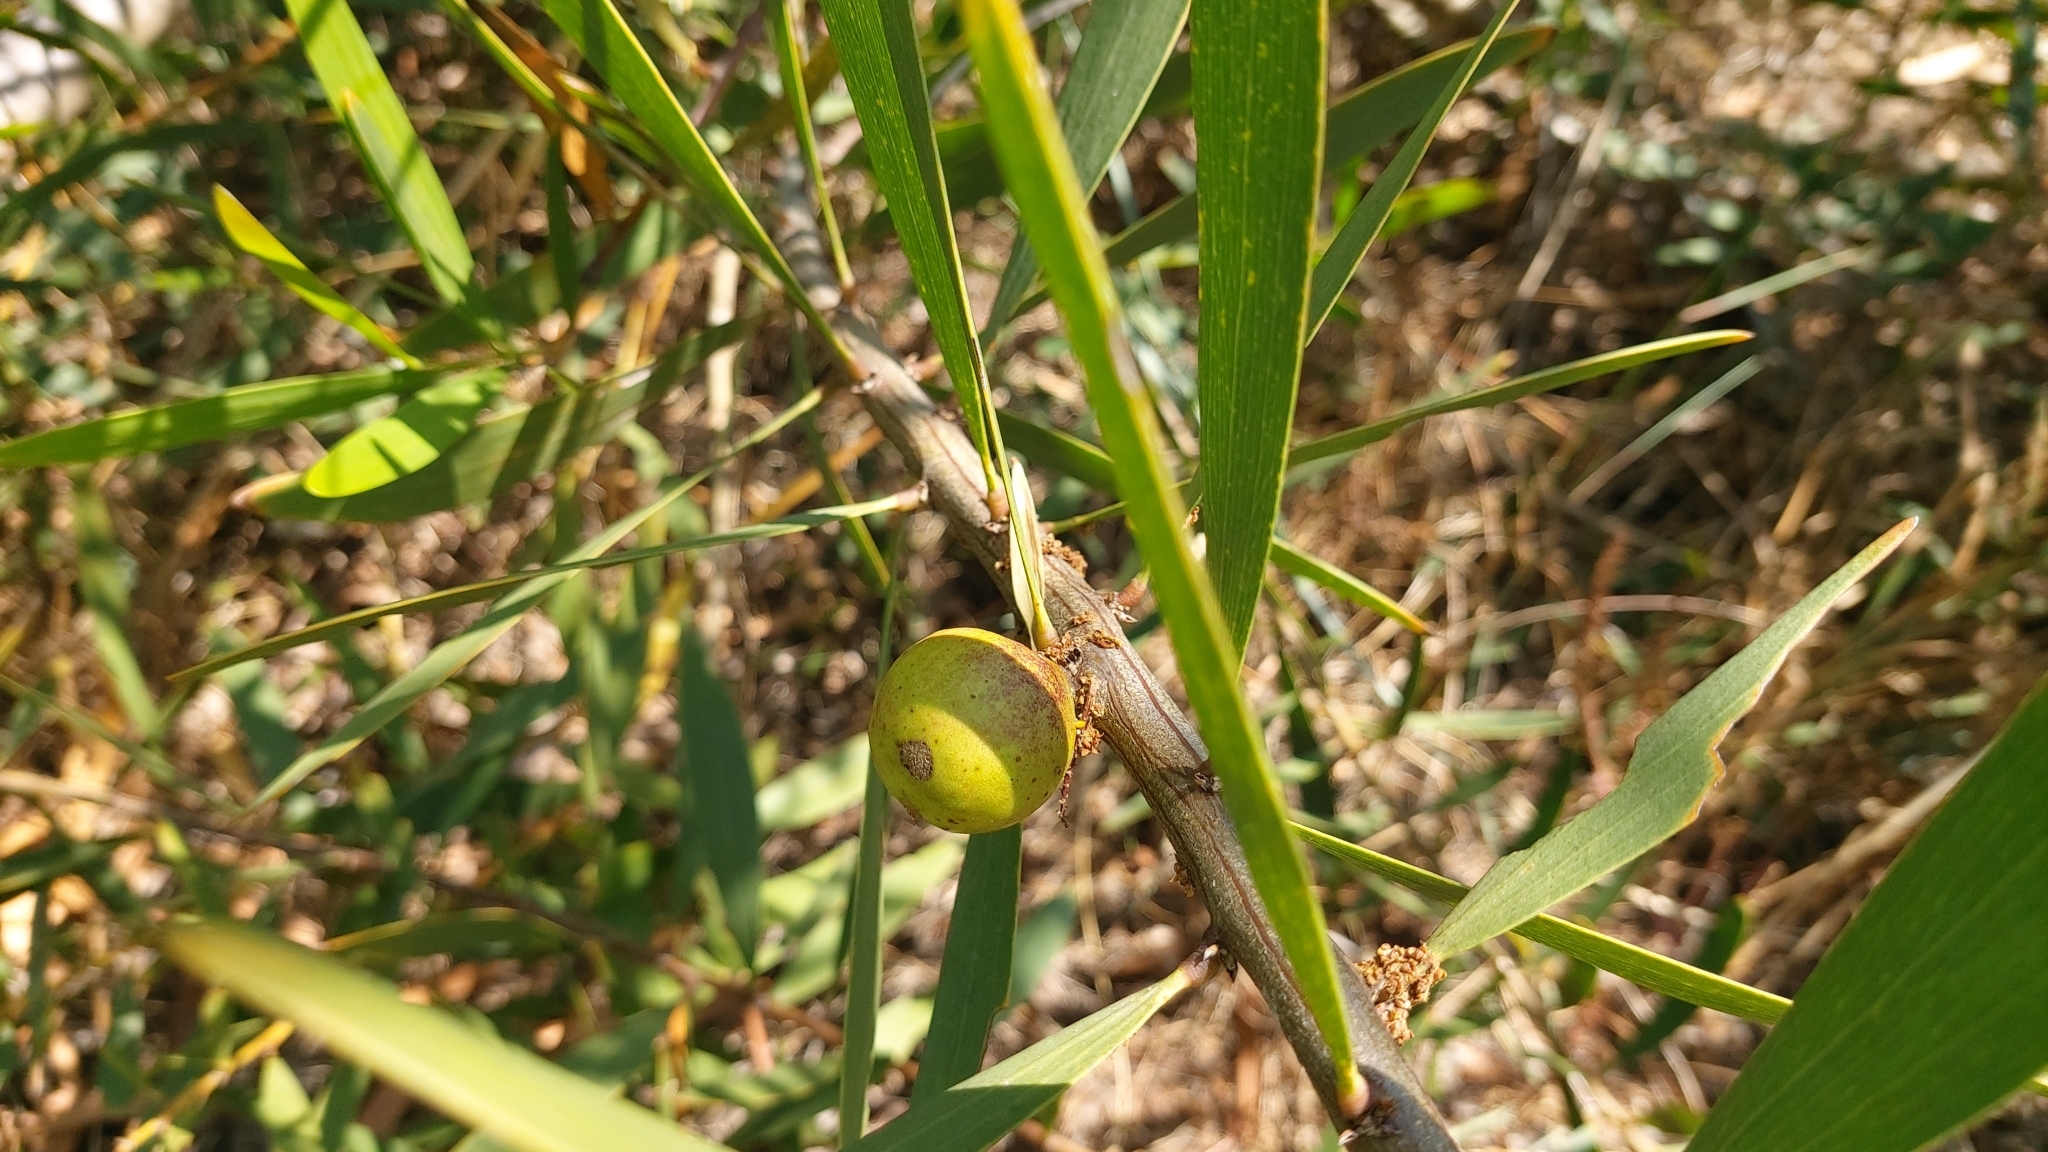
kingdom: Plantae
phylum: Tracheophyta
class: Magnoliopsida
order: Fabales
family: Fabaceae
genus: Acacia
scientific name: Acacia longifolia
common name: Sydney golden wattle
